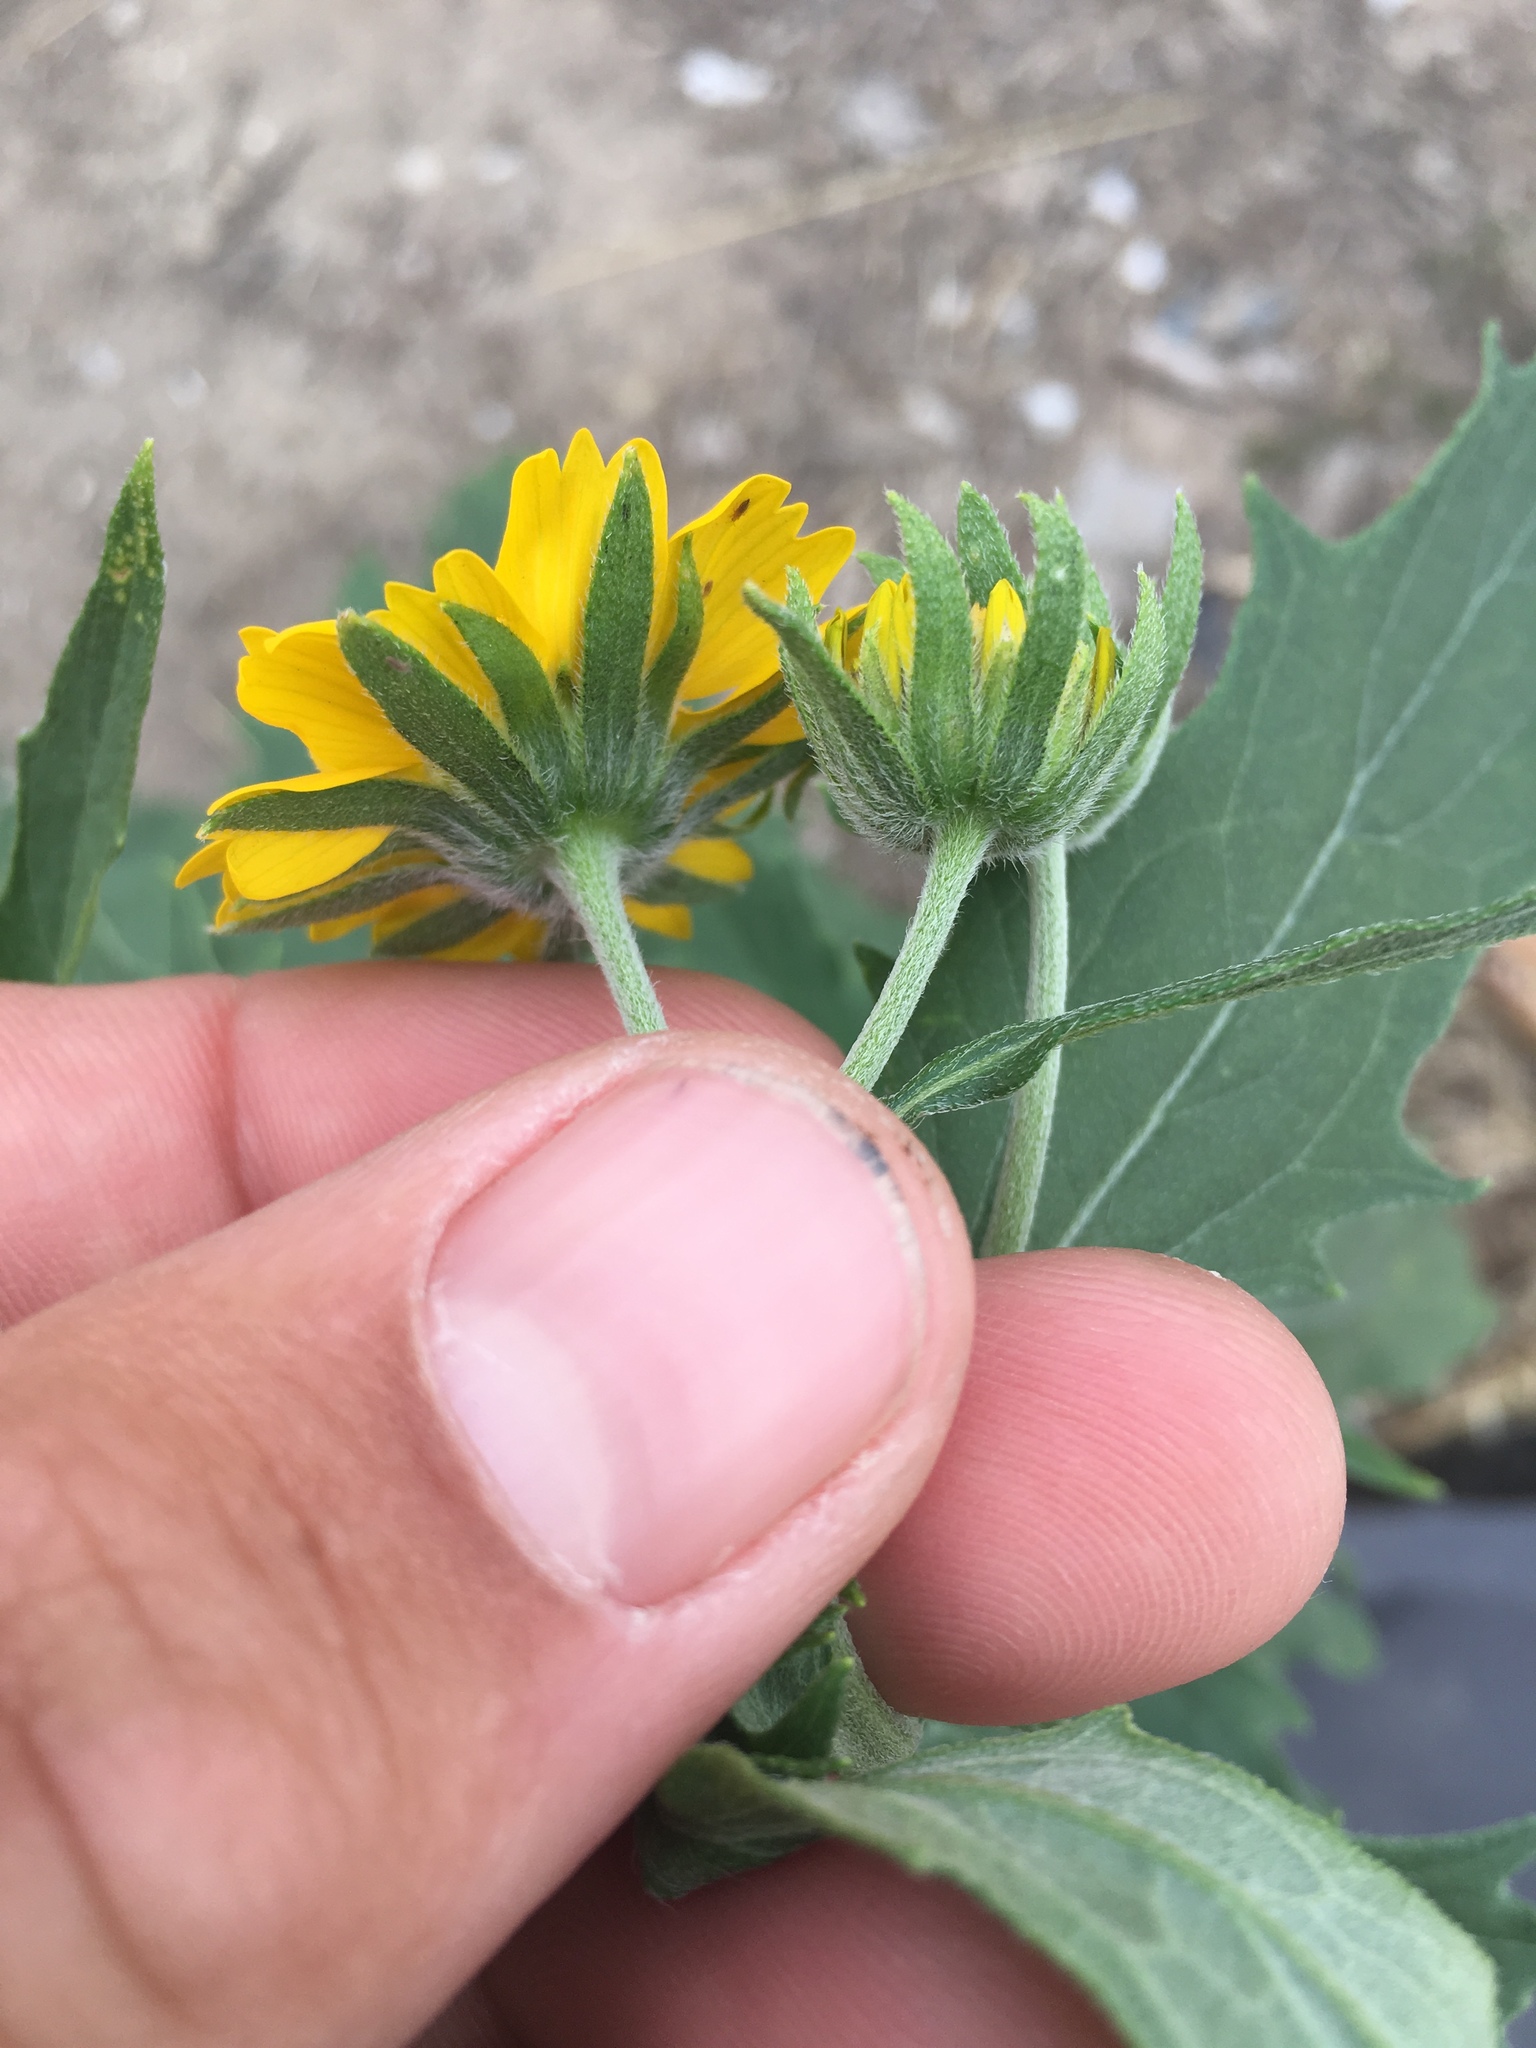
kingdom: Plantae
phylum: Tracheophyta
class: Magnoliopsida
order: Asterales
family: Asteraceae
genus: Verbesina
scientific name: Verbesina encelioides
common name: Golden crownbeard
